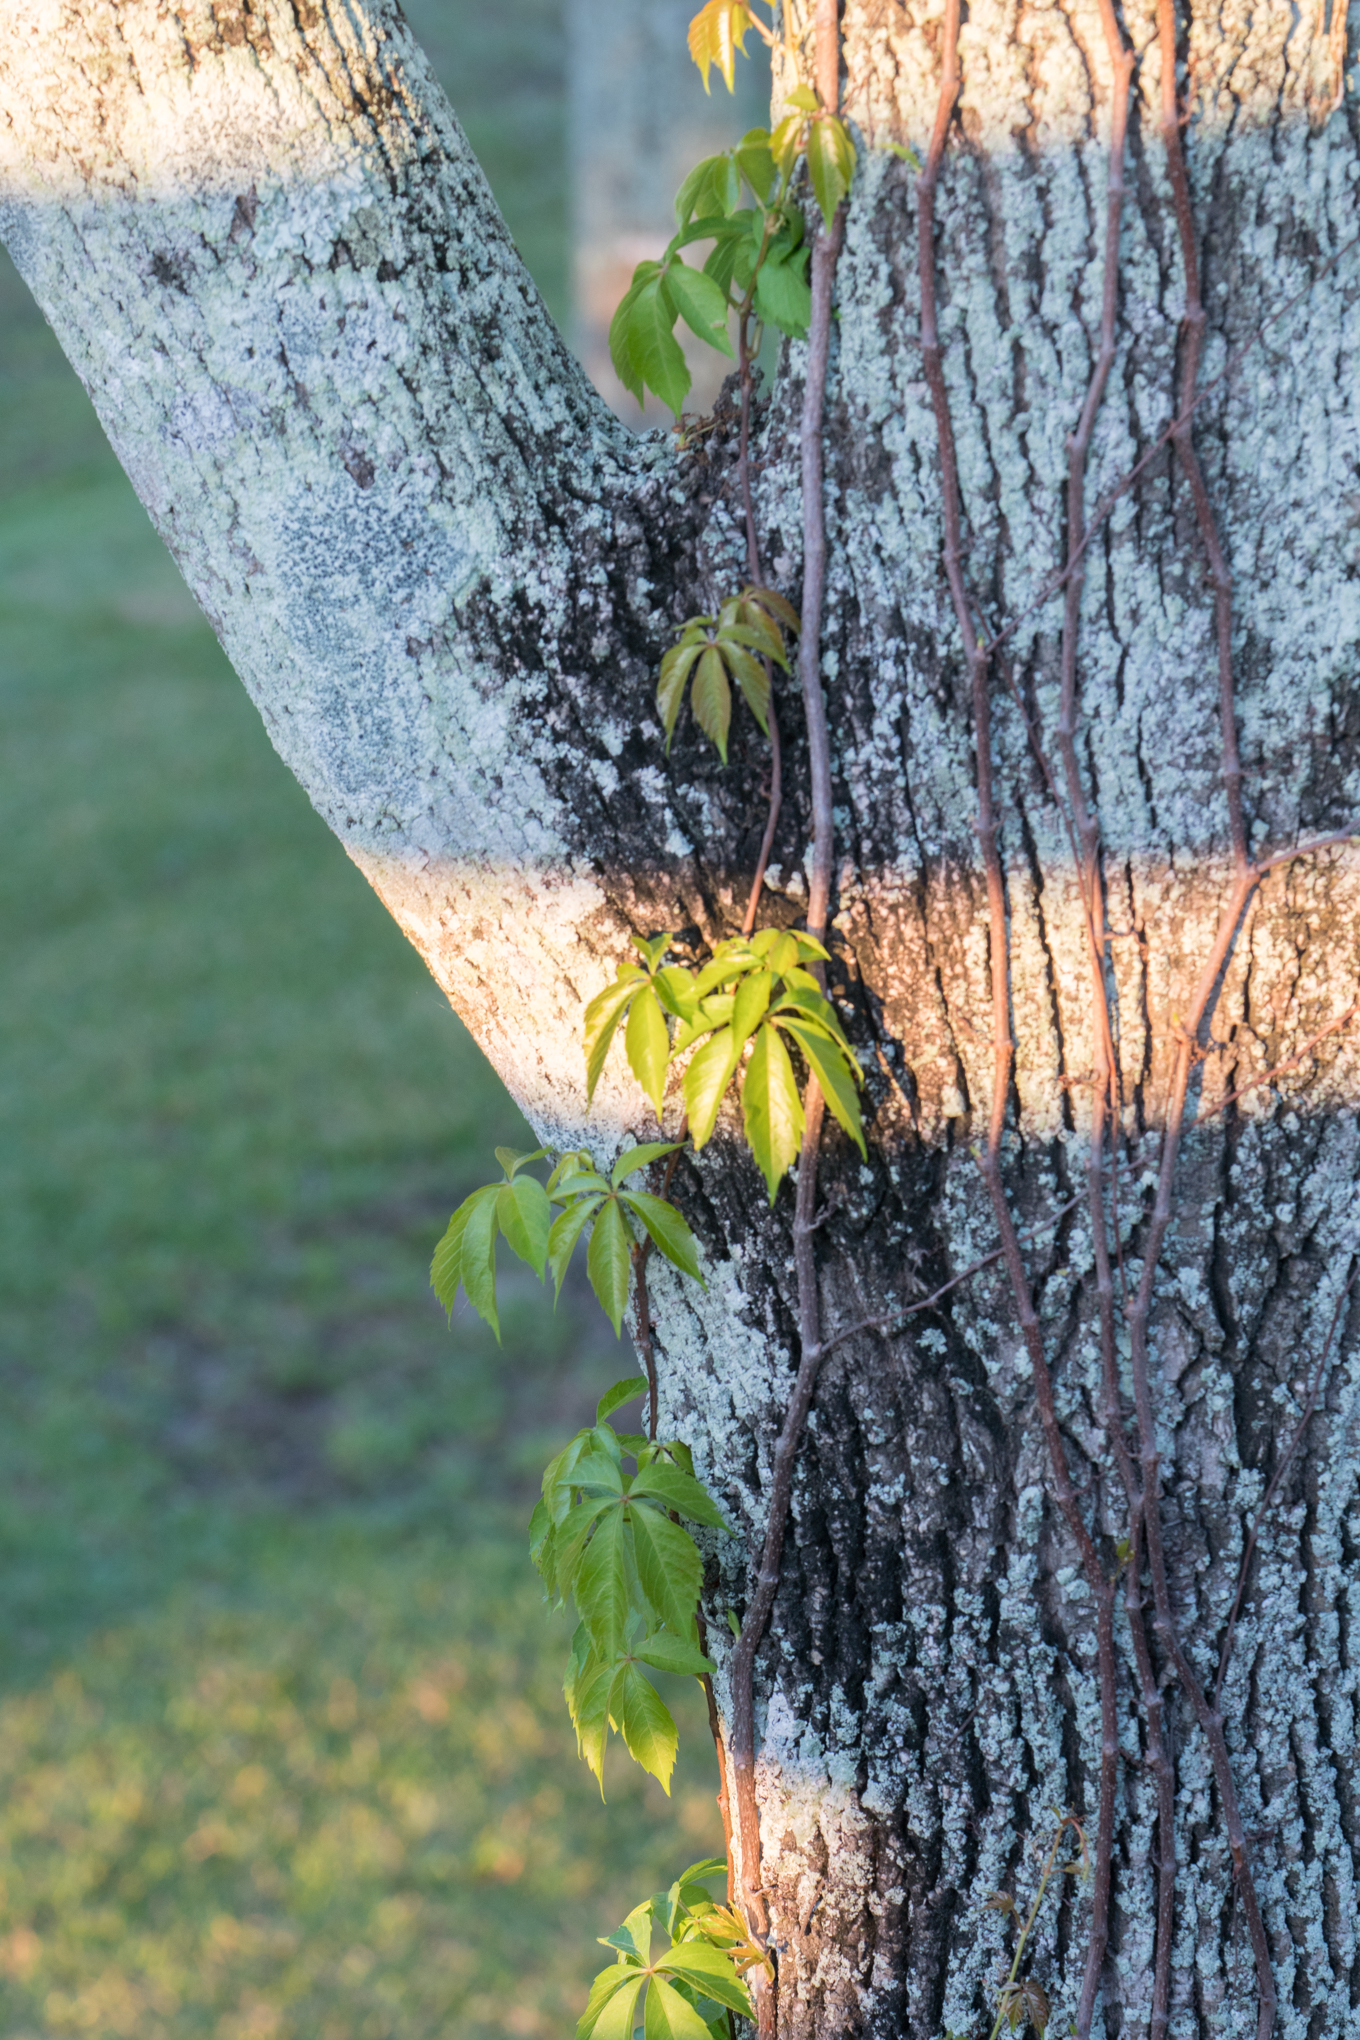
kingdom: Plantae
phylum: Tracheophyta
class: Magnoliopsida
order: Vitales
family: Vitaceae
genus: Parthenocissus
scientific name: Parthenocissus quinquefolia
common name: Virginia-creeper
